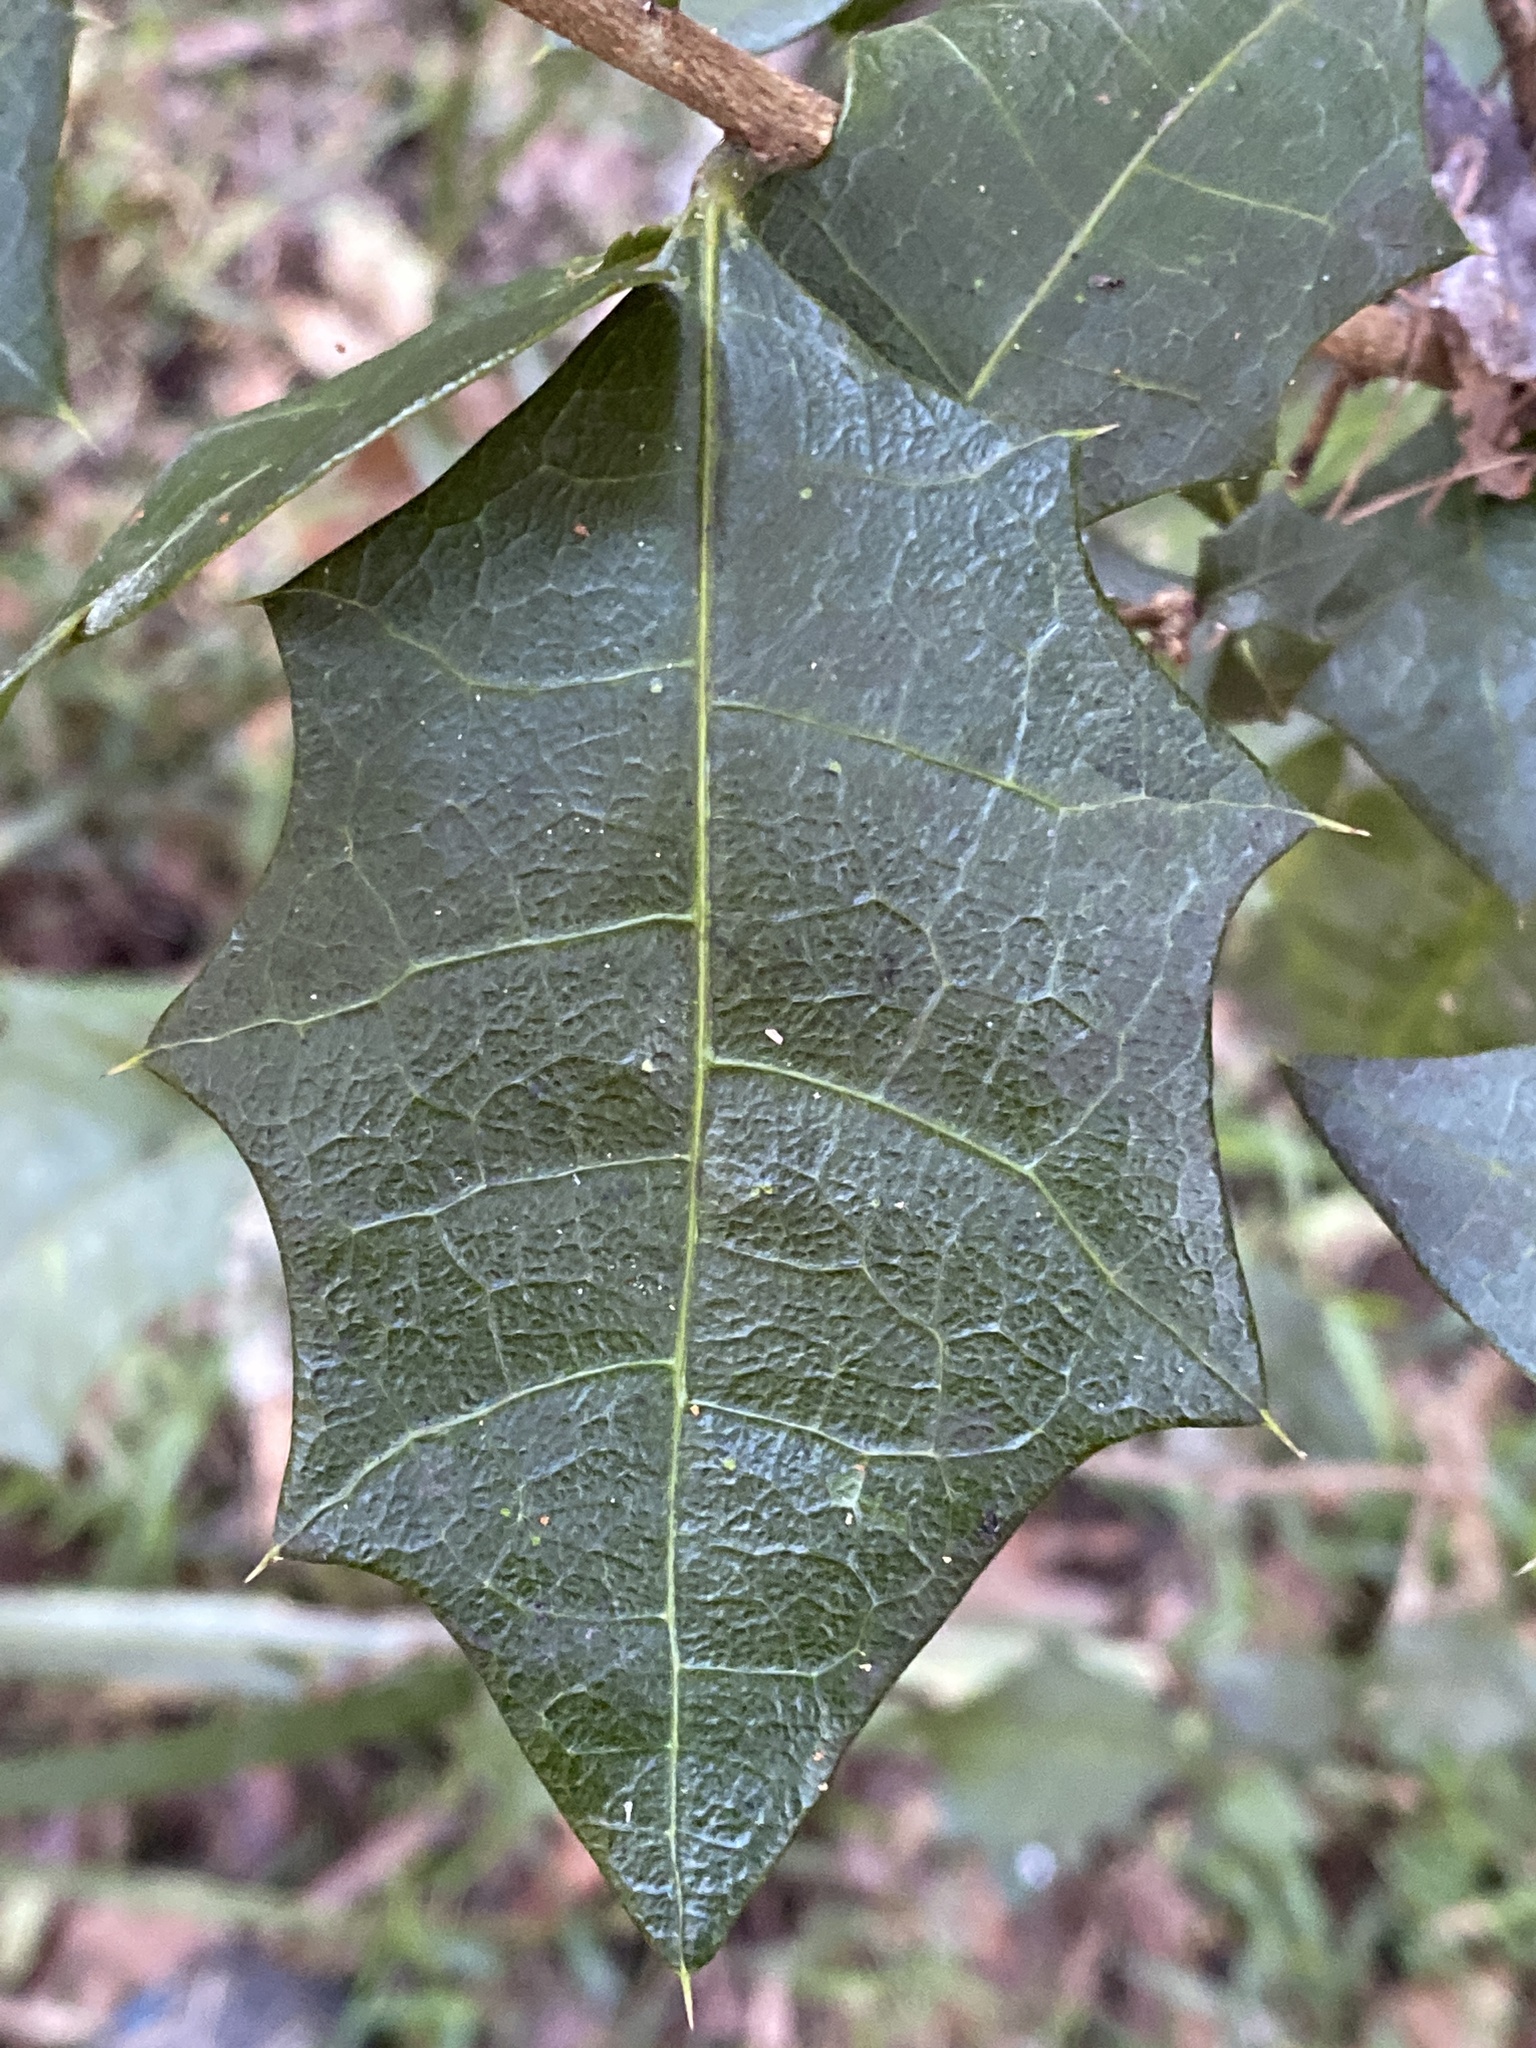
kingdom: Plantae
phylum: Tracheophyta
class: Magnoliopsida
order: Malpighiales
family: Euphorbiaceae
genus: Alchornea
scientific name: Alchornea ilicifolia
